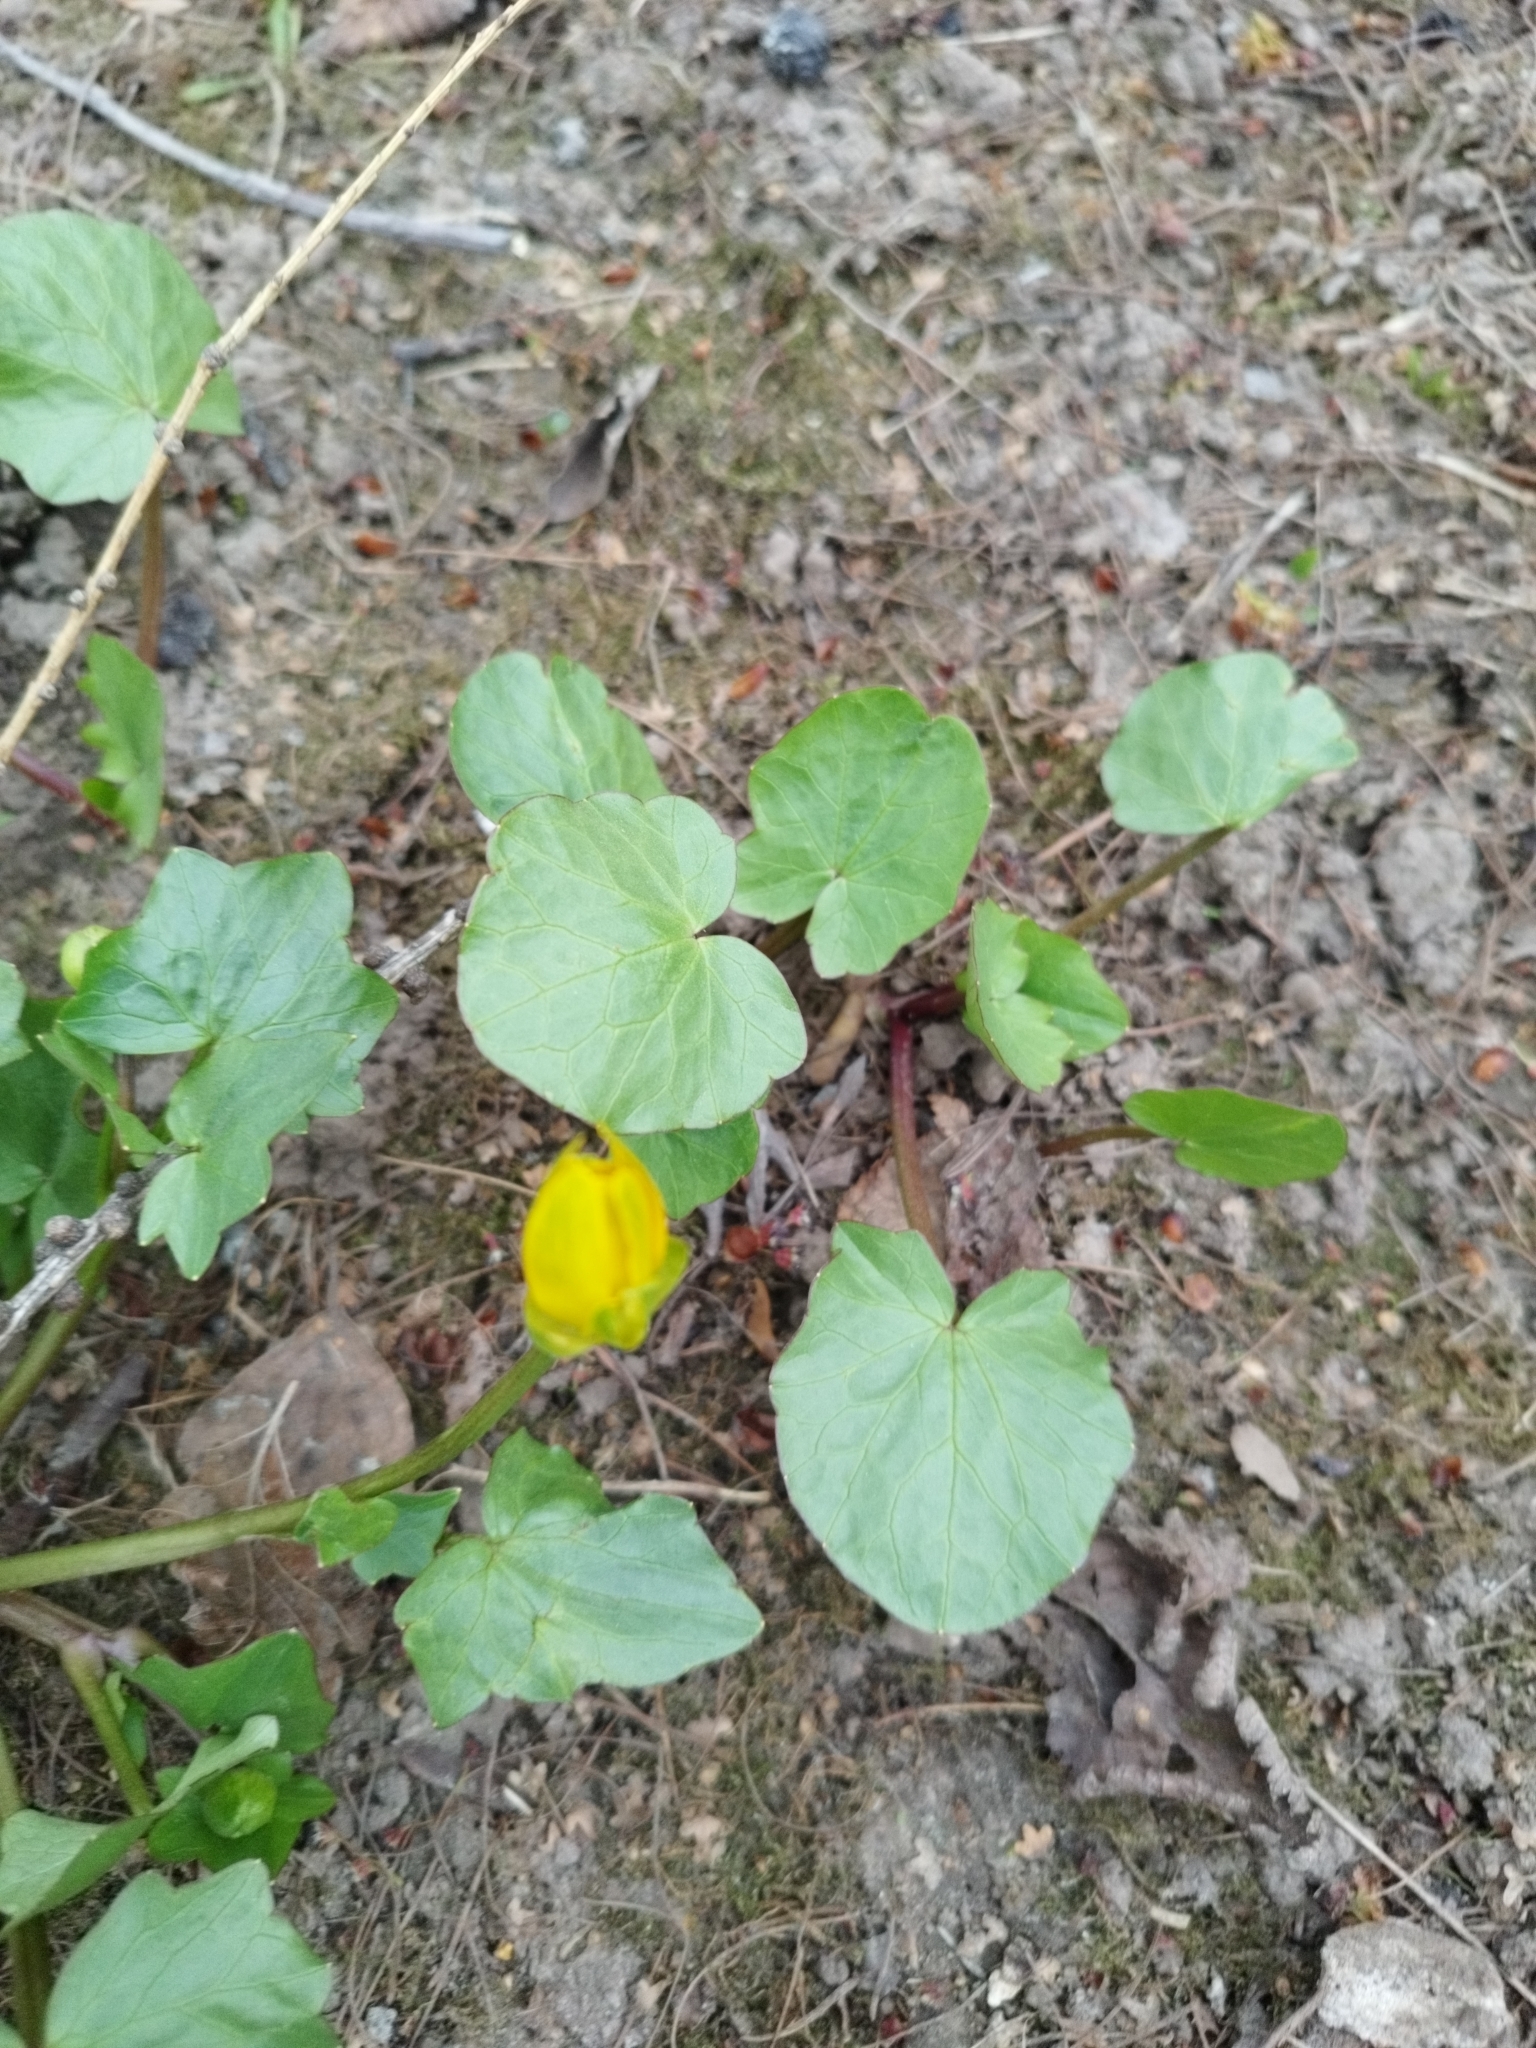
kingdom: Plantae
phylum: Tracheophyta
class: Magnoliopsida
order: Ranunculales
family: Ranunculaceae
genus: Ficaria
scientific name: Ficaria verna
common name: Lesser celandine
